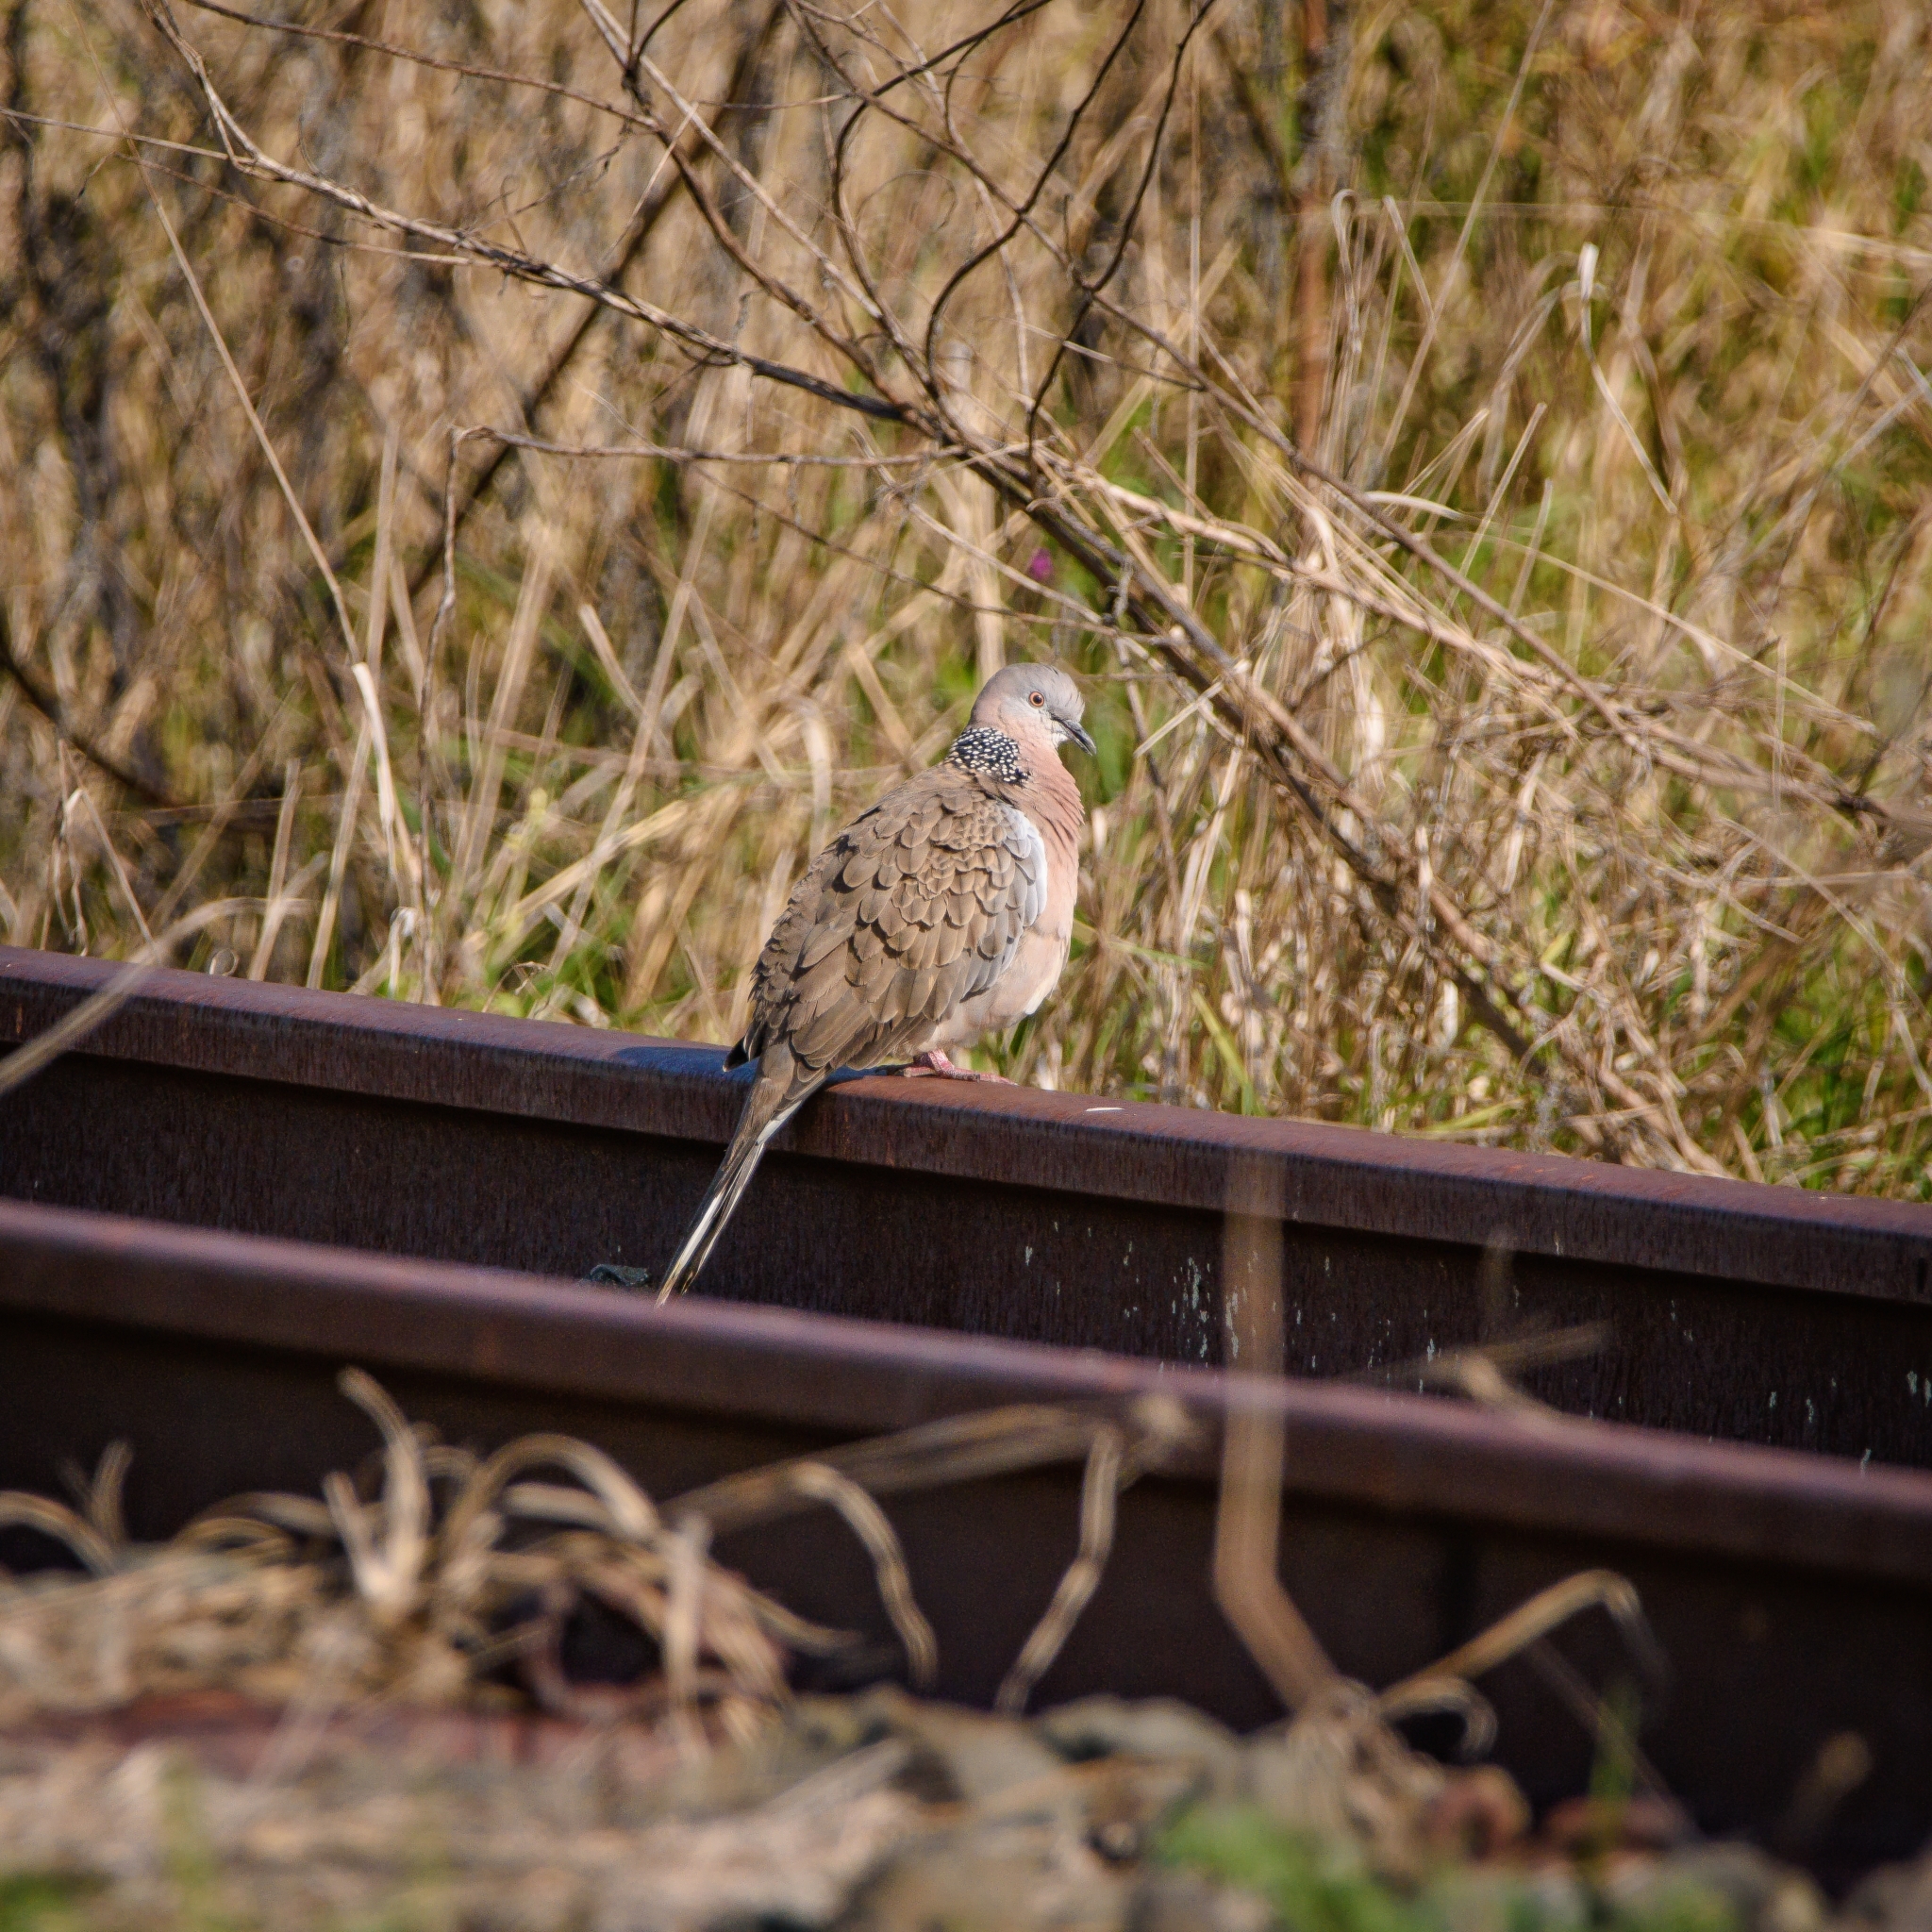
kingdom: Animalia
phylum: Chordata
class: Aves
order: Columbiformes
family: Columbidae
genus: Spilopelia
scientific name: Spilopelia chinensis
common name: Spotted dove
